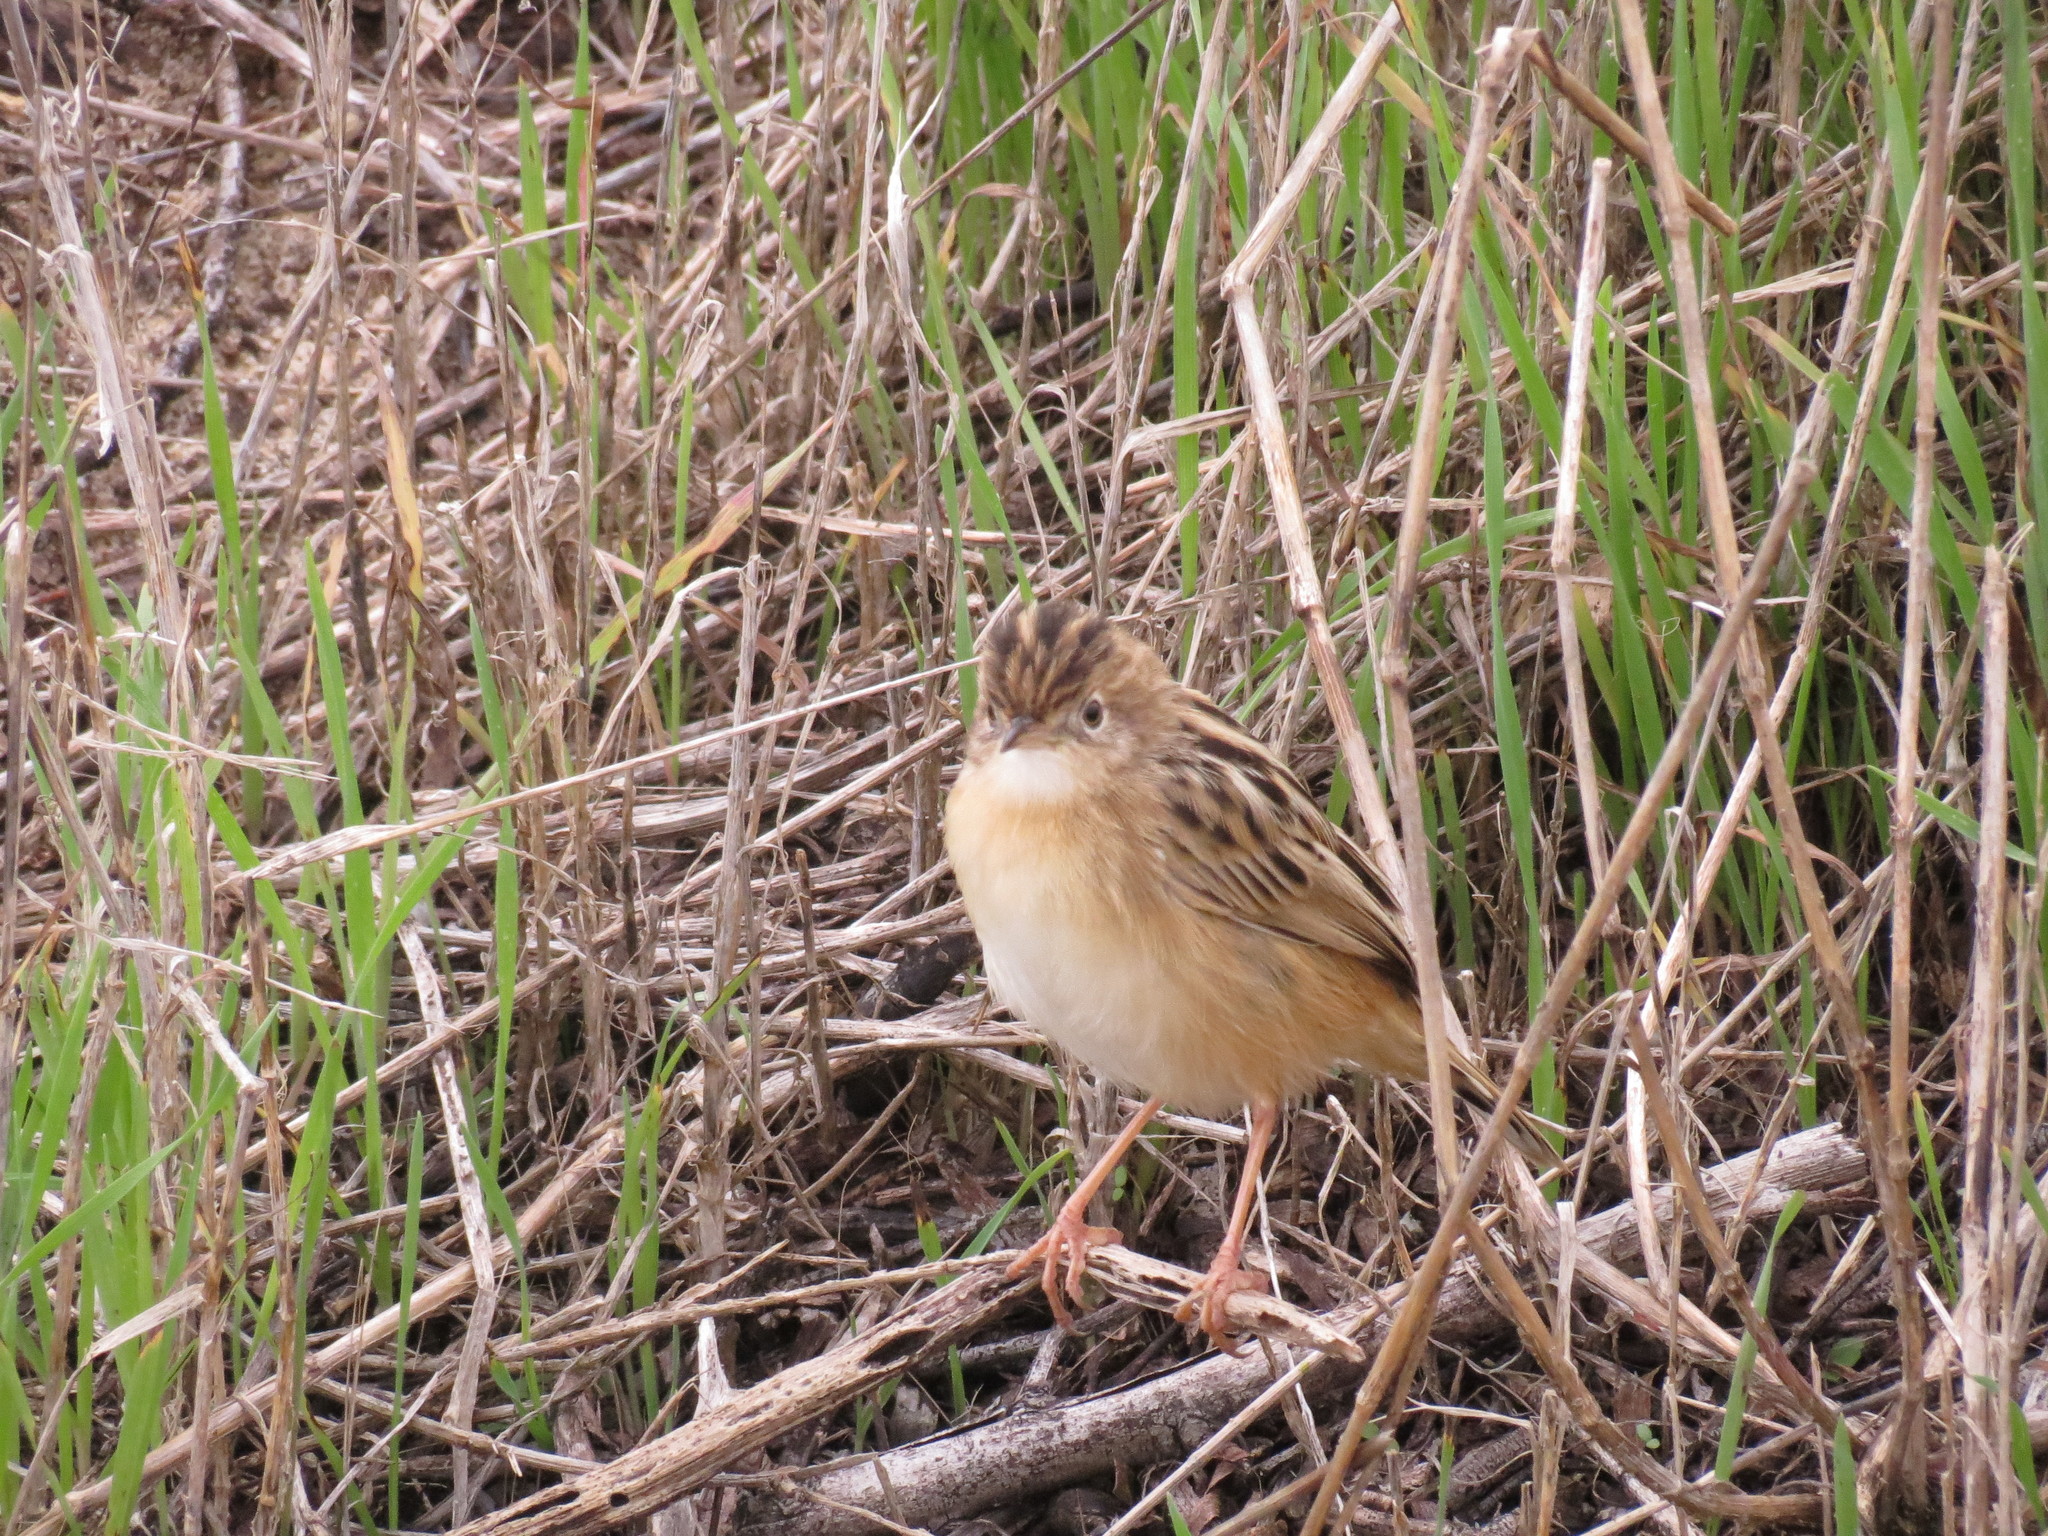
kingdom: Animalia
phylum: Chordata
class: Aves
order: Passeriformes
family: Cisticolidae
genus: Cisticola
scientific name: Cisticola juncidis
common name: Zitting cisticola
